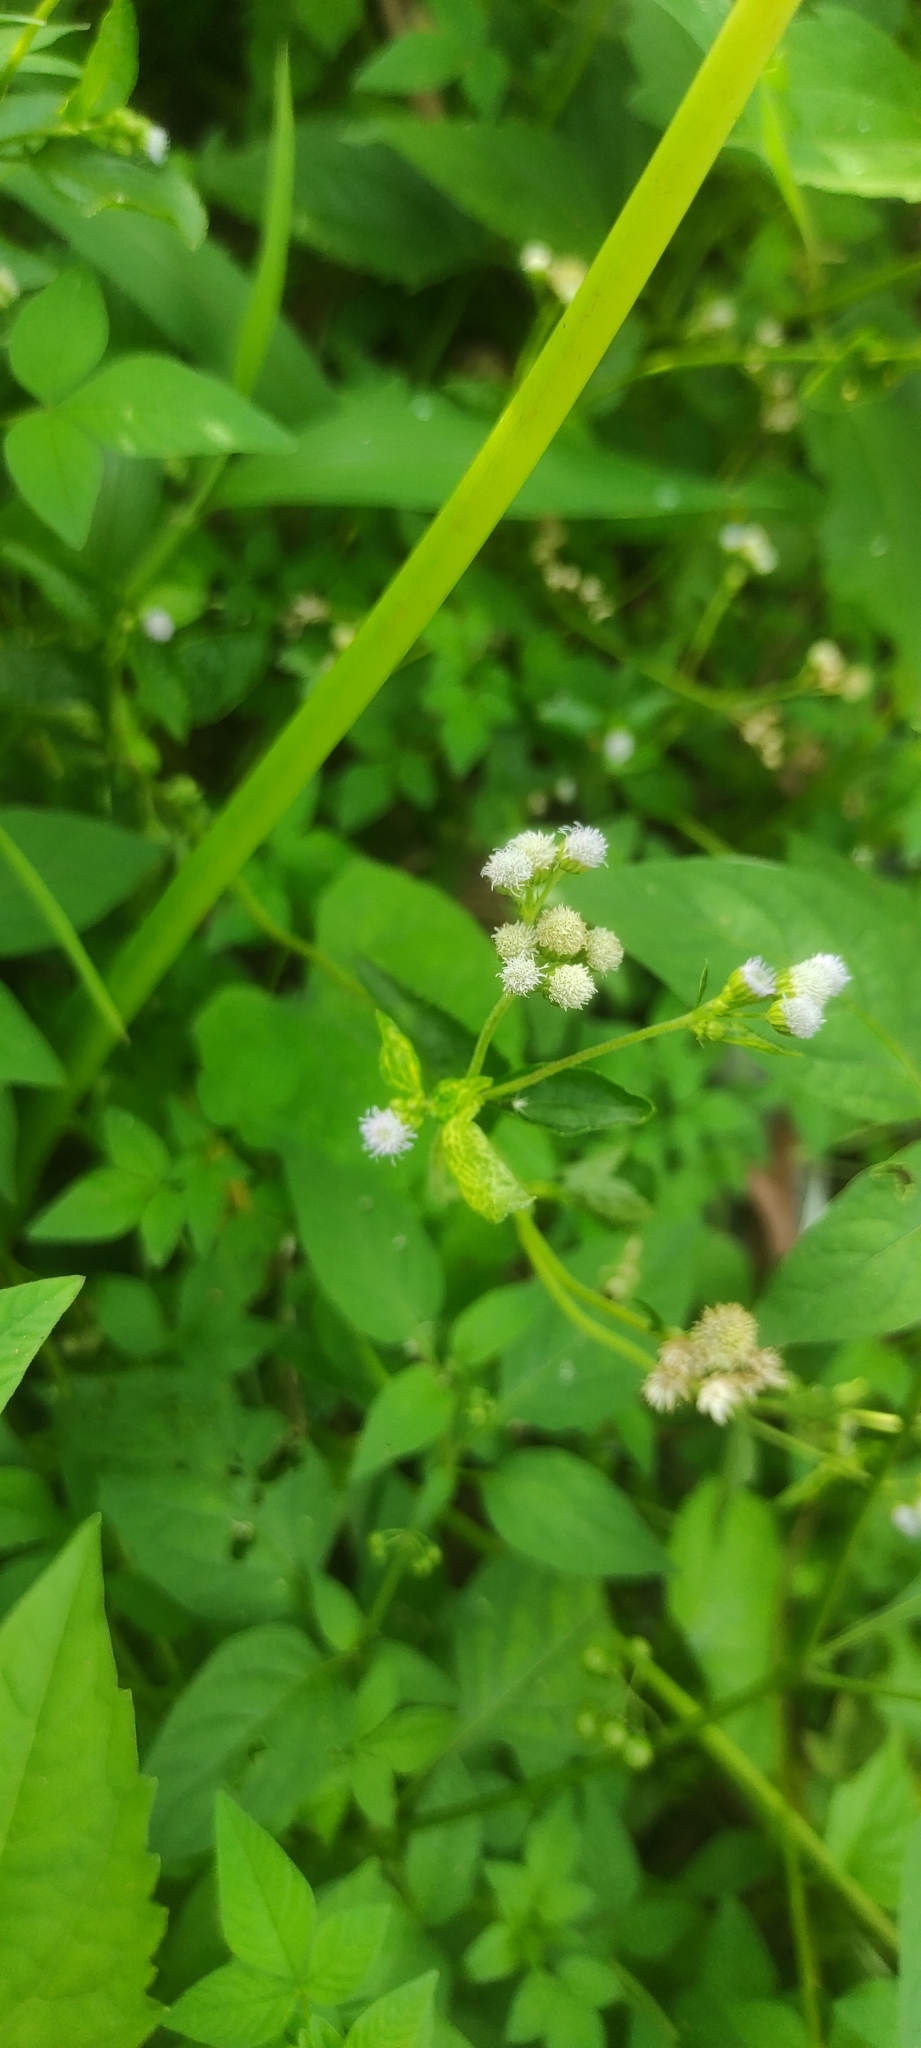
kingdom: Plantae
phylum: Tracheophyta
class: Magnoliopsida
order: Asterales
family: Asteraceae
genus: Ageratum
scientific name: Ageratum conyzoides
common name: Tropical whiteweed
